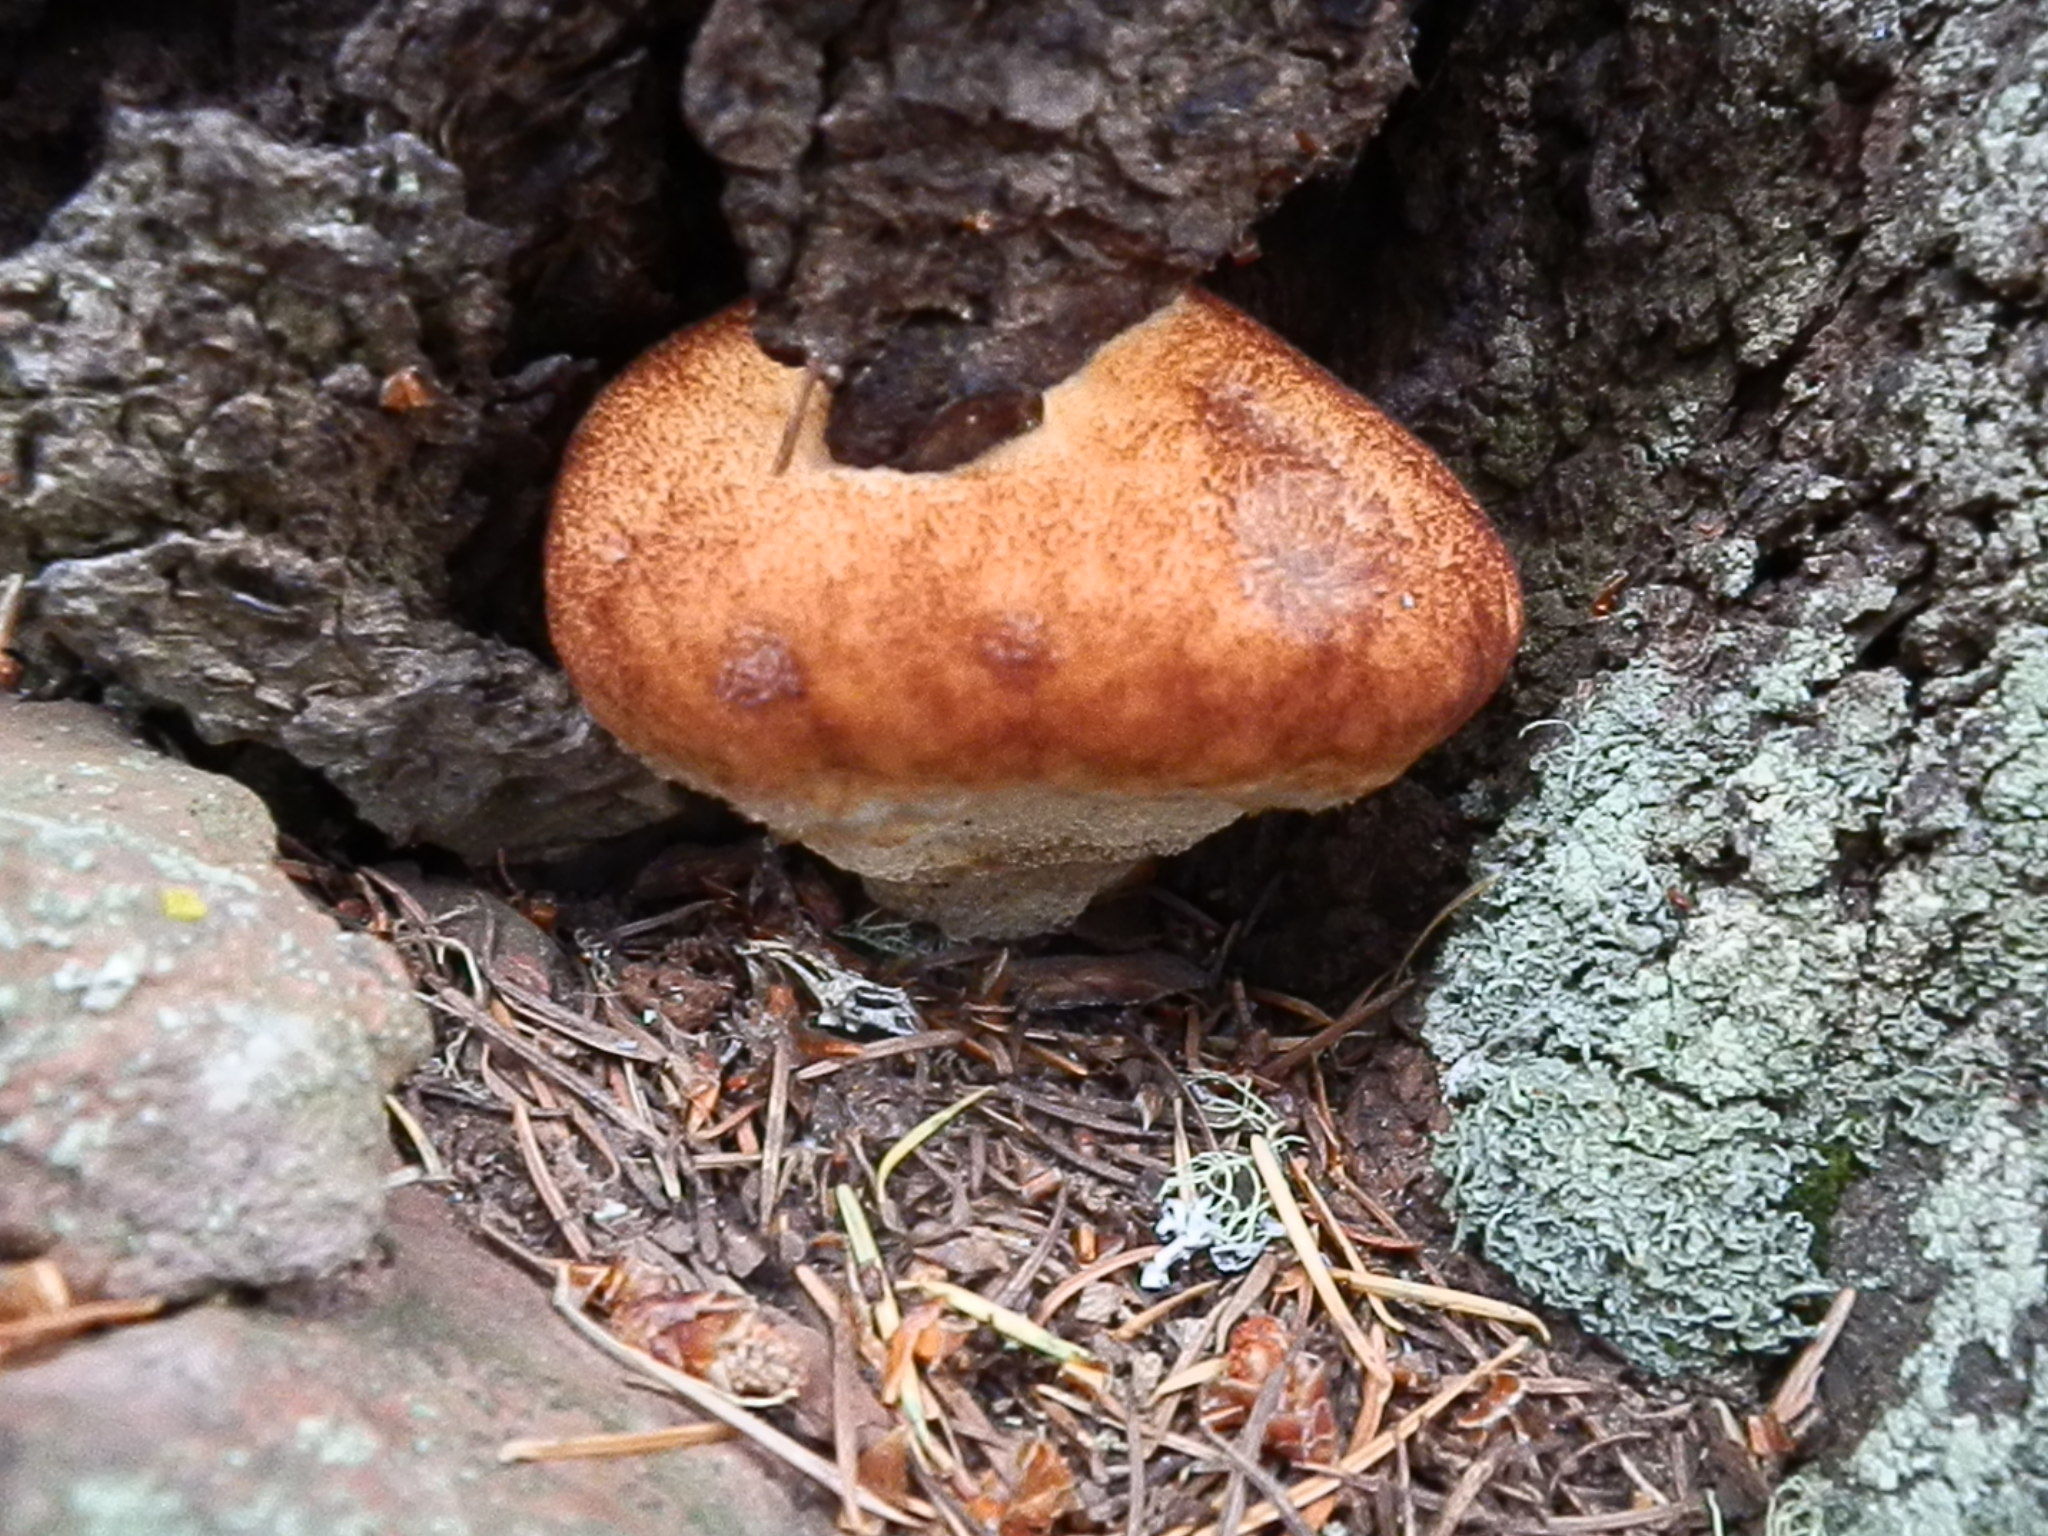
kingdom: Fungi
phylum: Basidiomycota
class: Agaricomycetes
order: Polyporales
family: Laetiporaceae
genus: Phaeolus
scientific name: Phaeolus schweinitzii
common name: Dyer's mazegill
